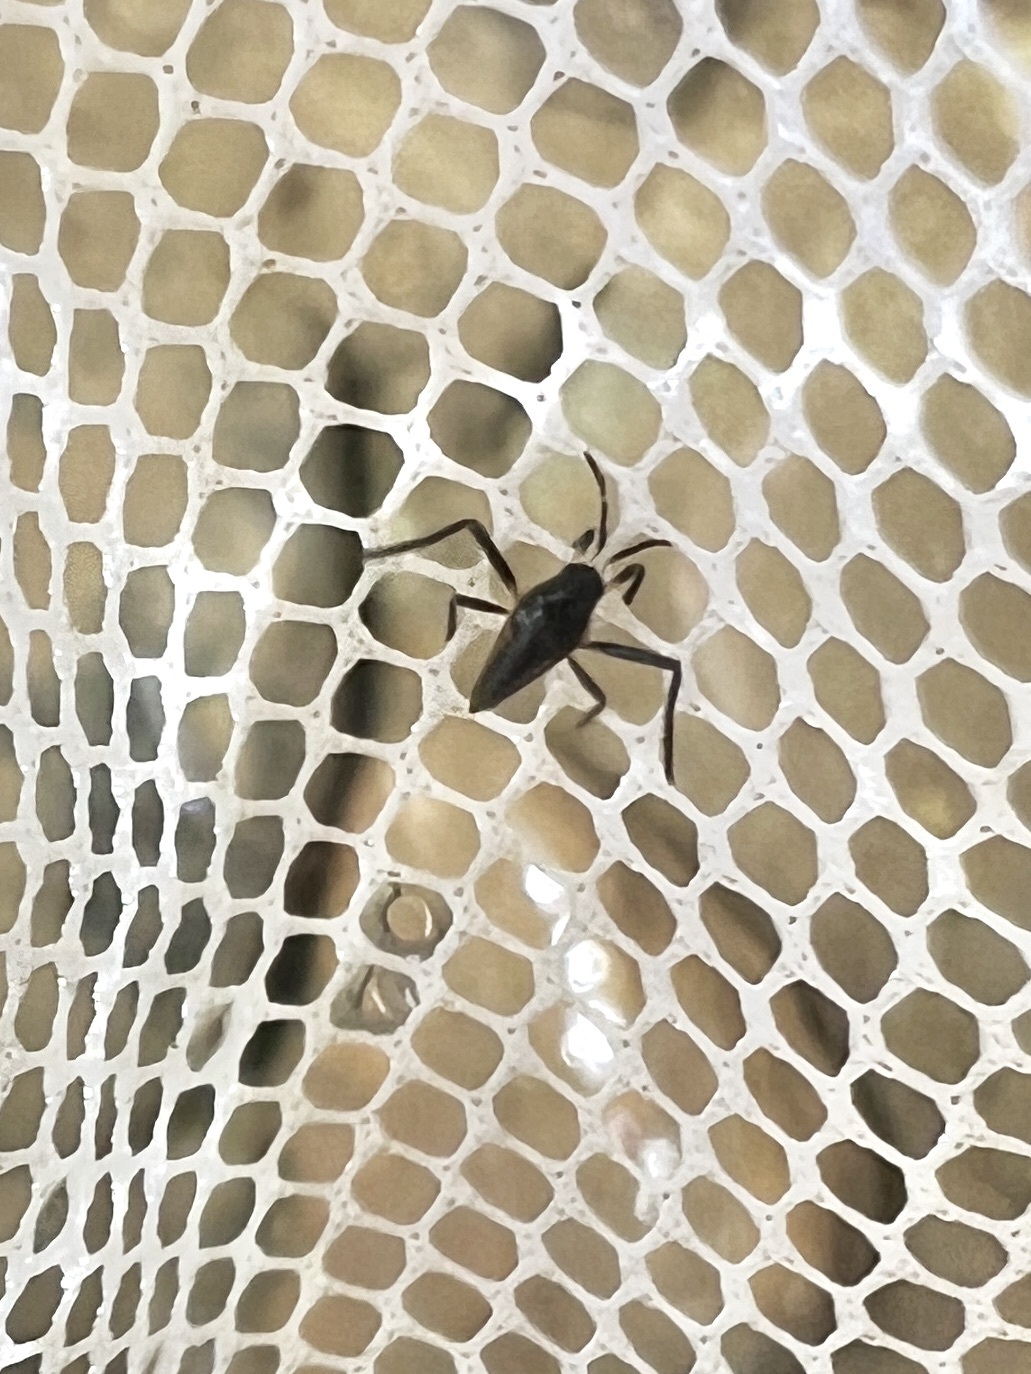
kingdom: Animalia
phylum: Arthropoda
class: Insecta
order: Hemiptera
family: Veliidae
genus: Rhagovelia
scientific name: Rhagovelia obesa
